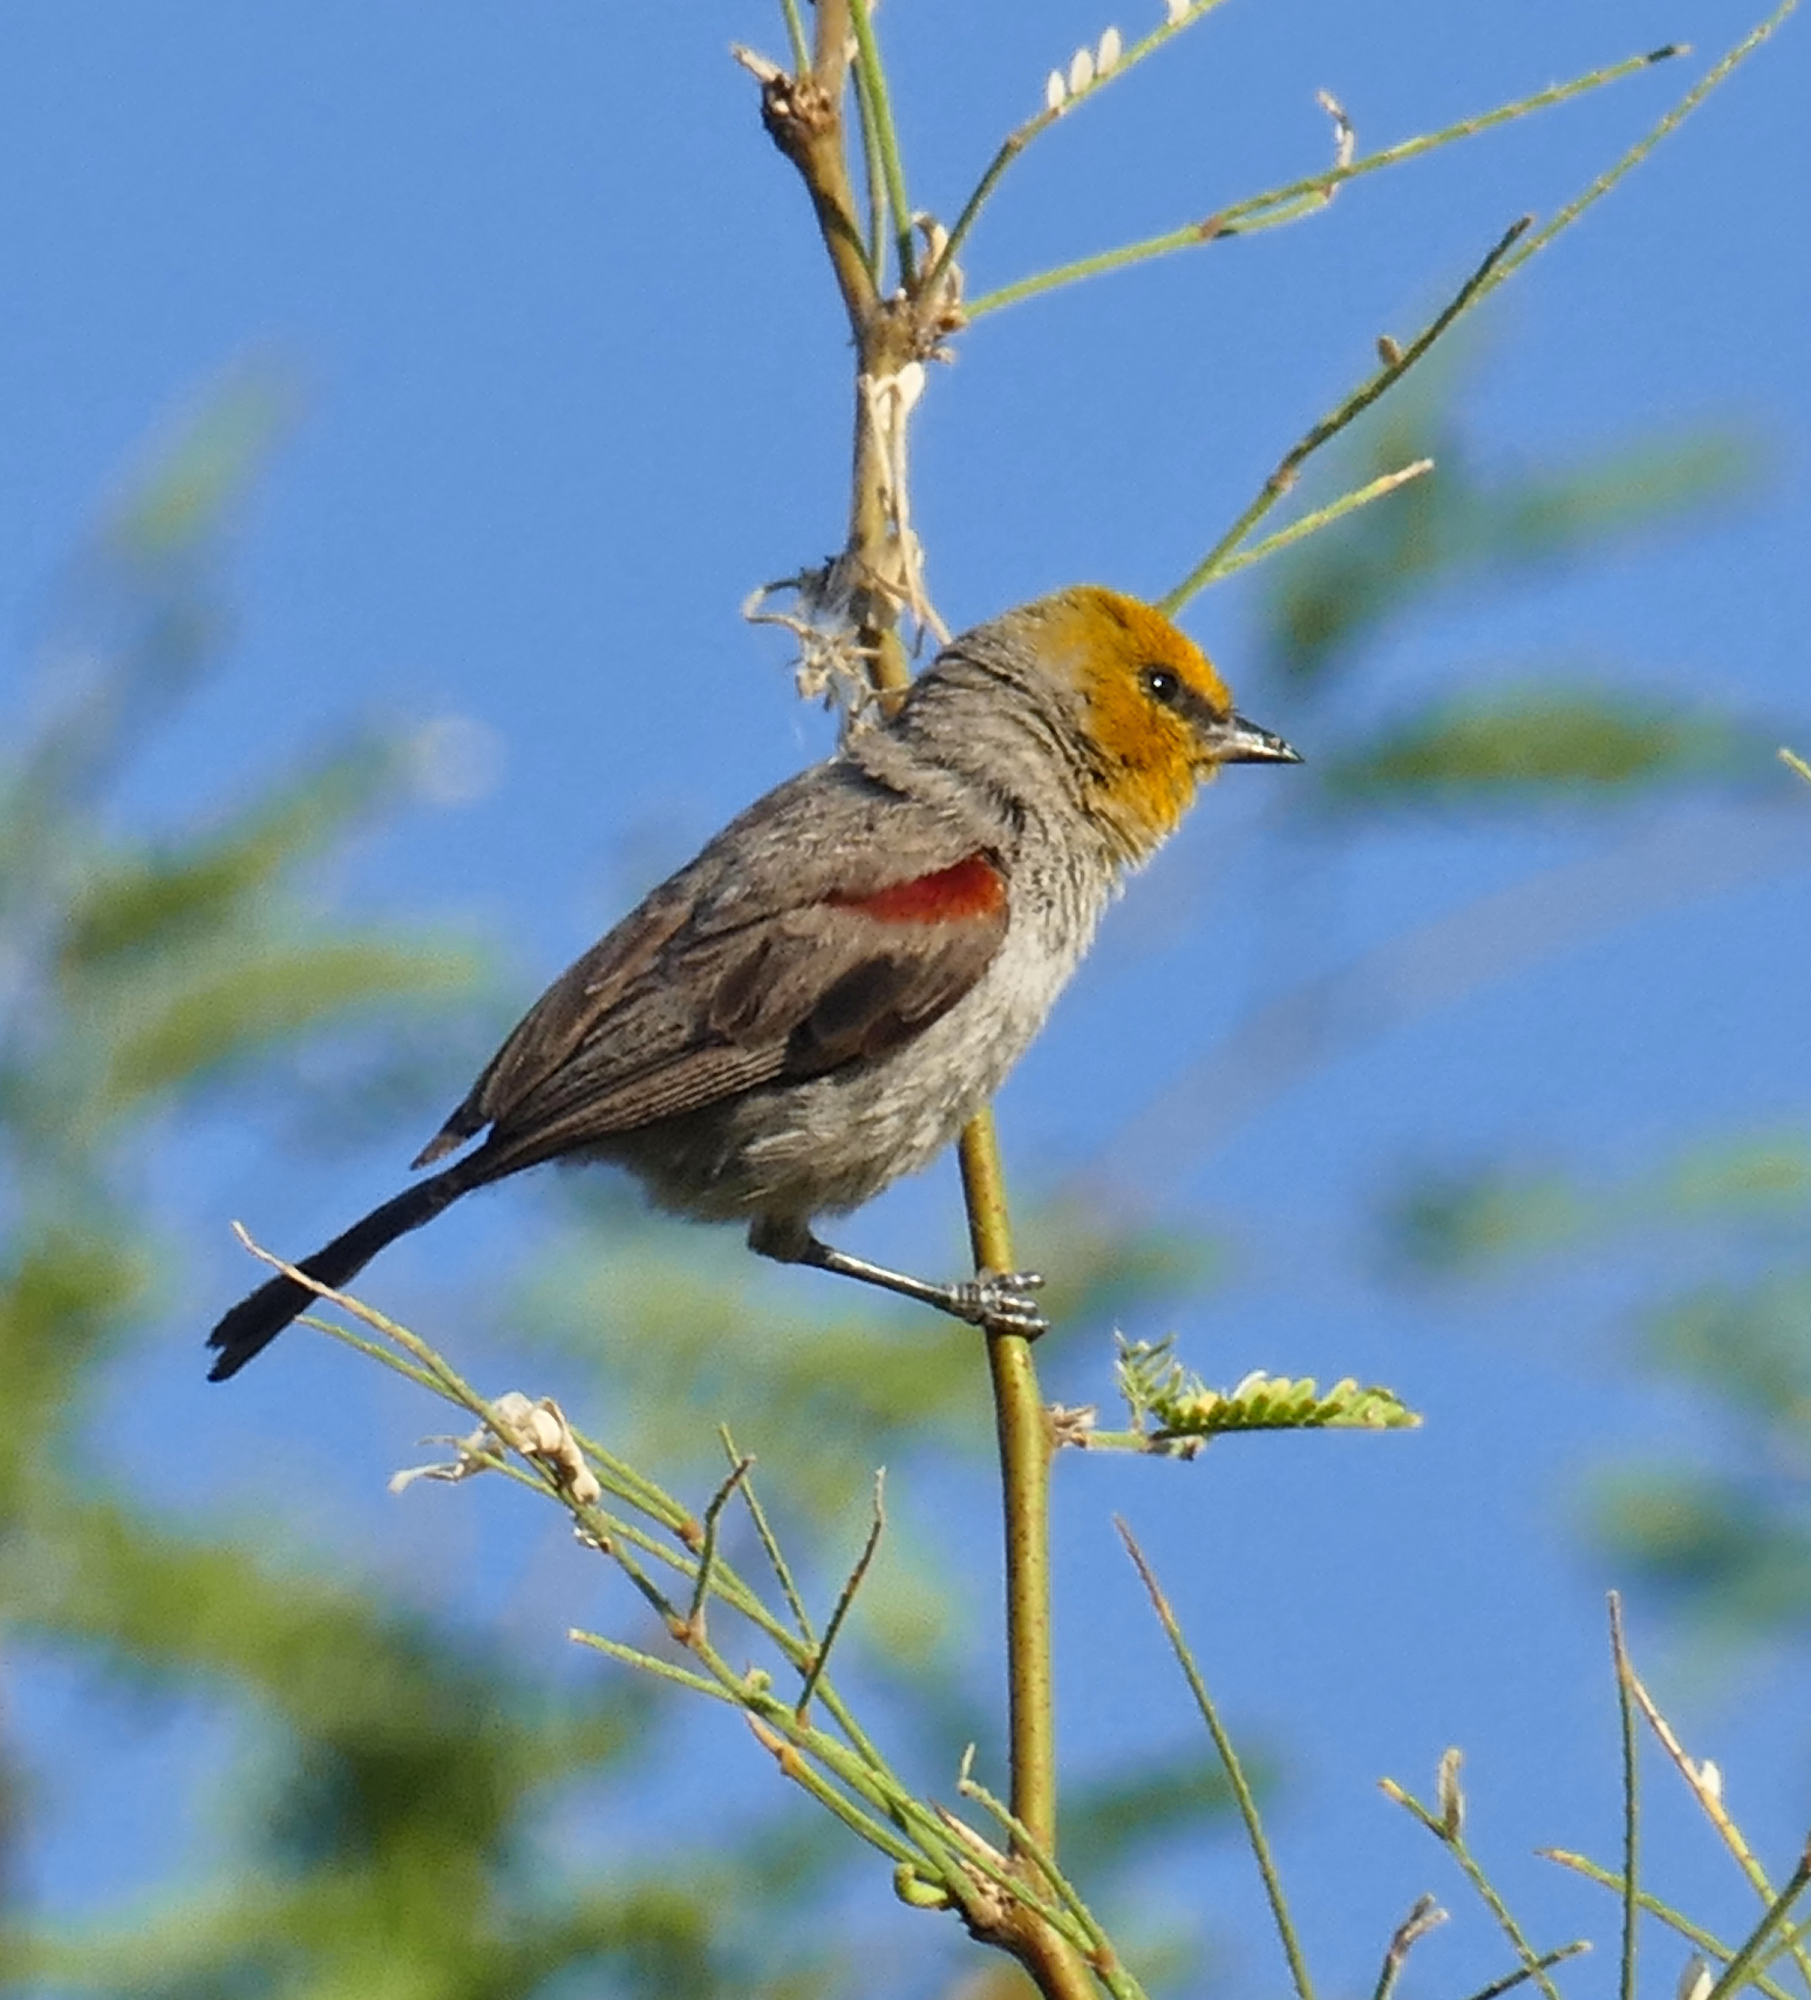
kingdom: Animalia
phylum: Chordata
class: Aves
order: Passeriformes
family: Remizidae
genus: Auriparus
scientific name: Auriparus flaviceps
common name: Verdin
